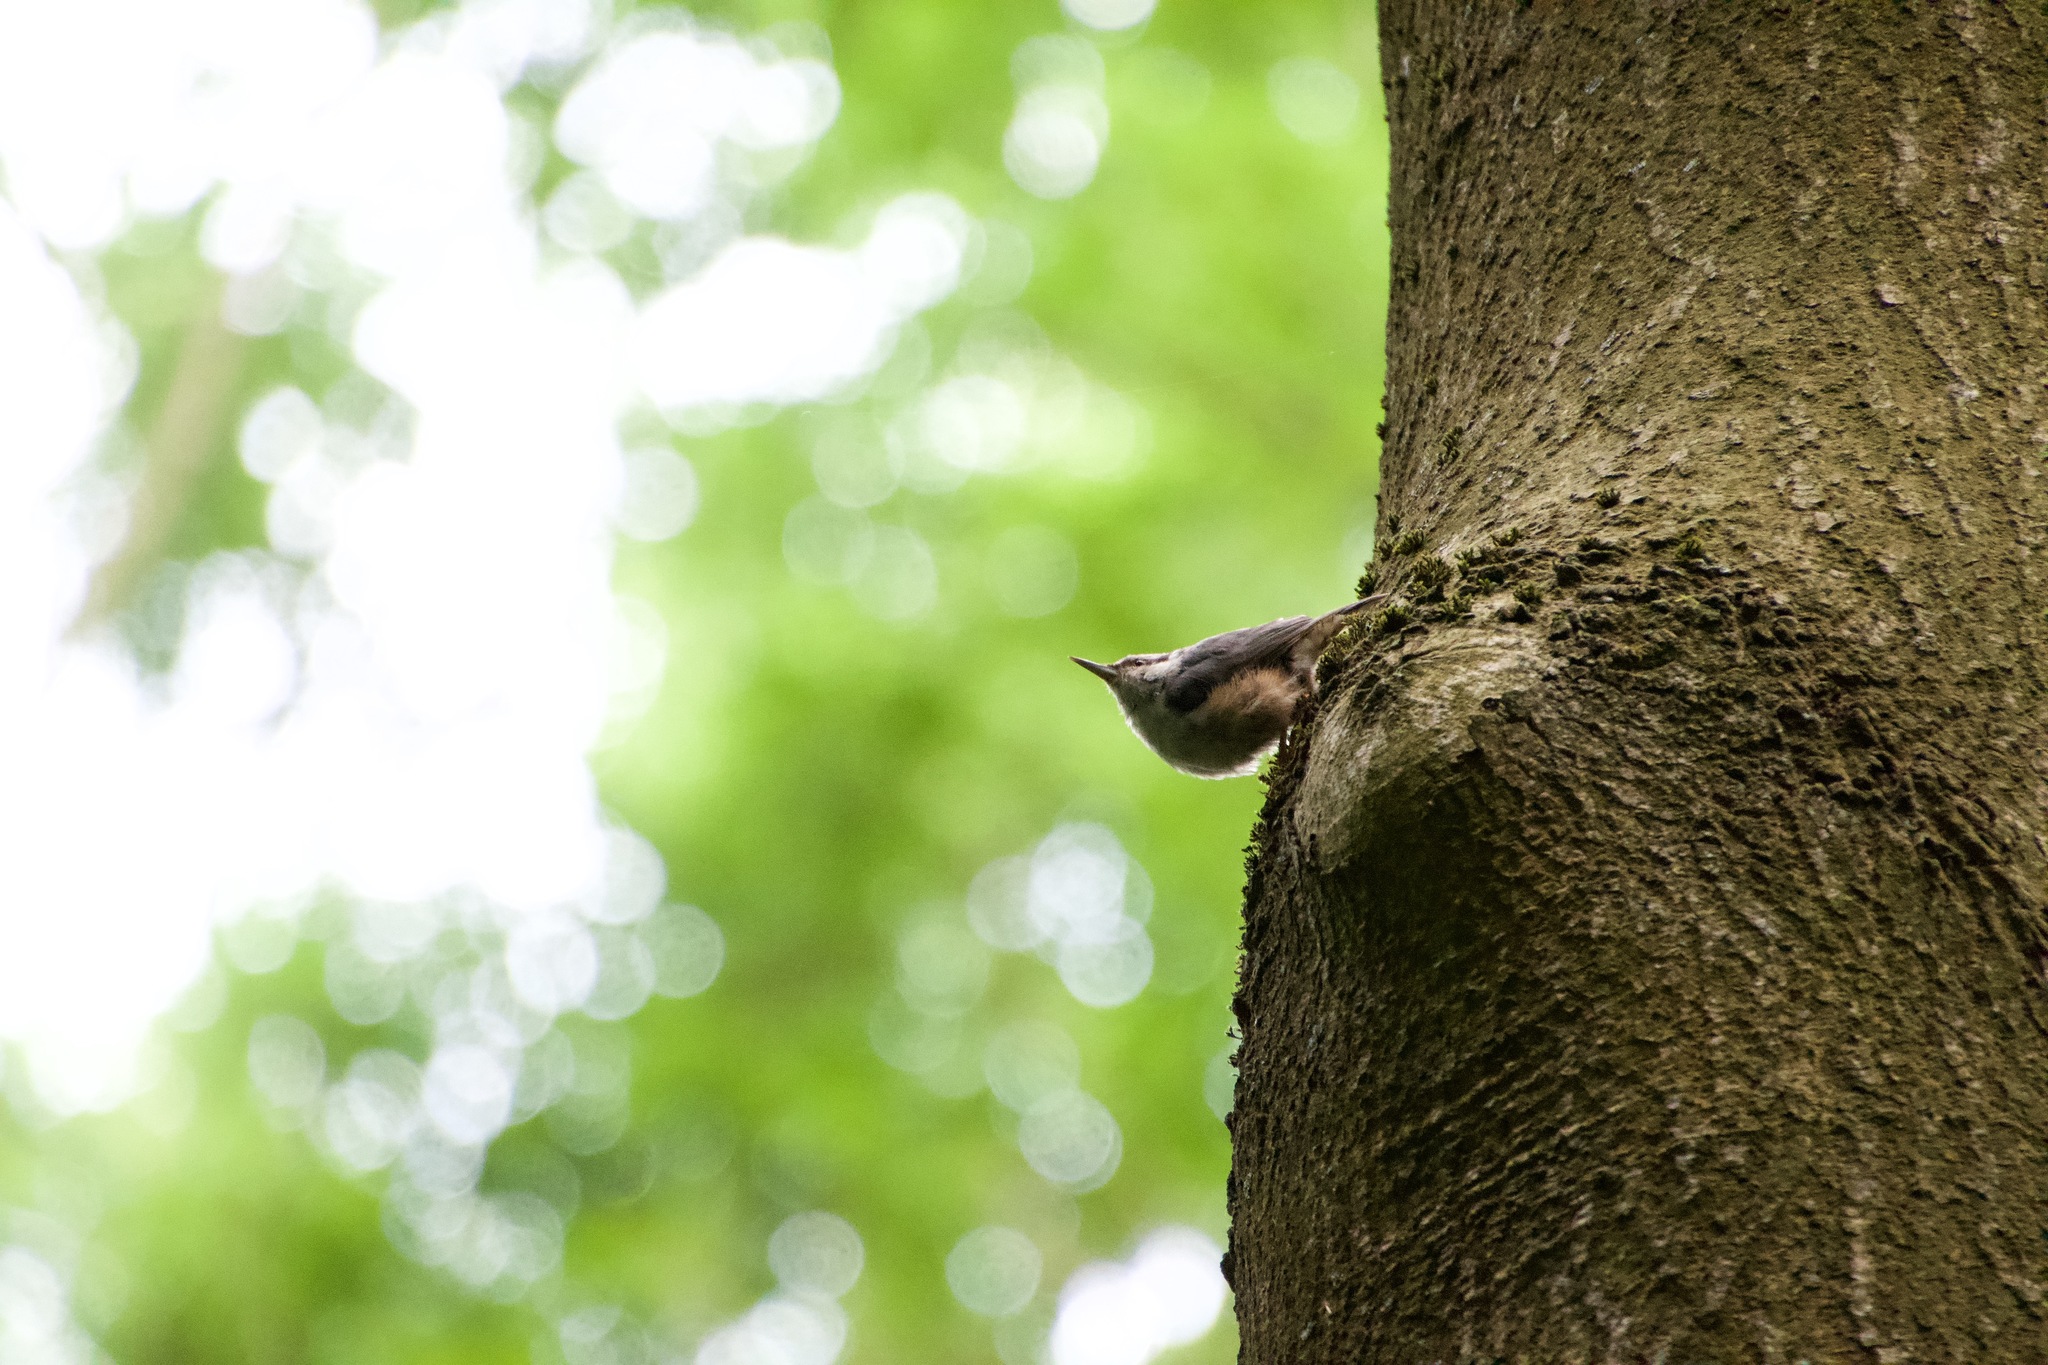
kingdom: Animalia
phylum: Chordata
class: Aves
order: Passeriformes
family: Sittidae
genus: Sitta
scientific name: Sitta europaea
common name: Eurasian nuthatch
